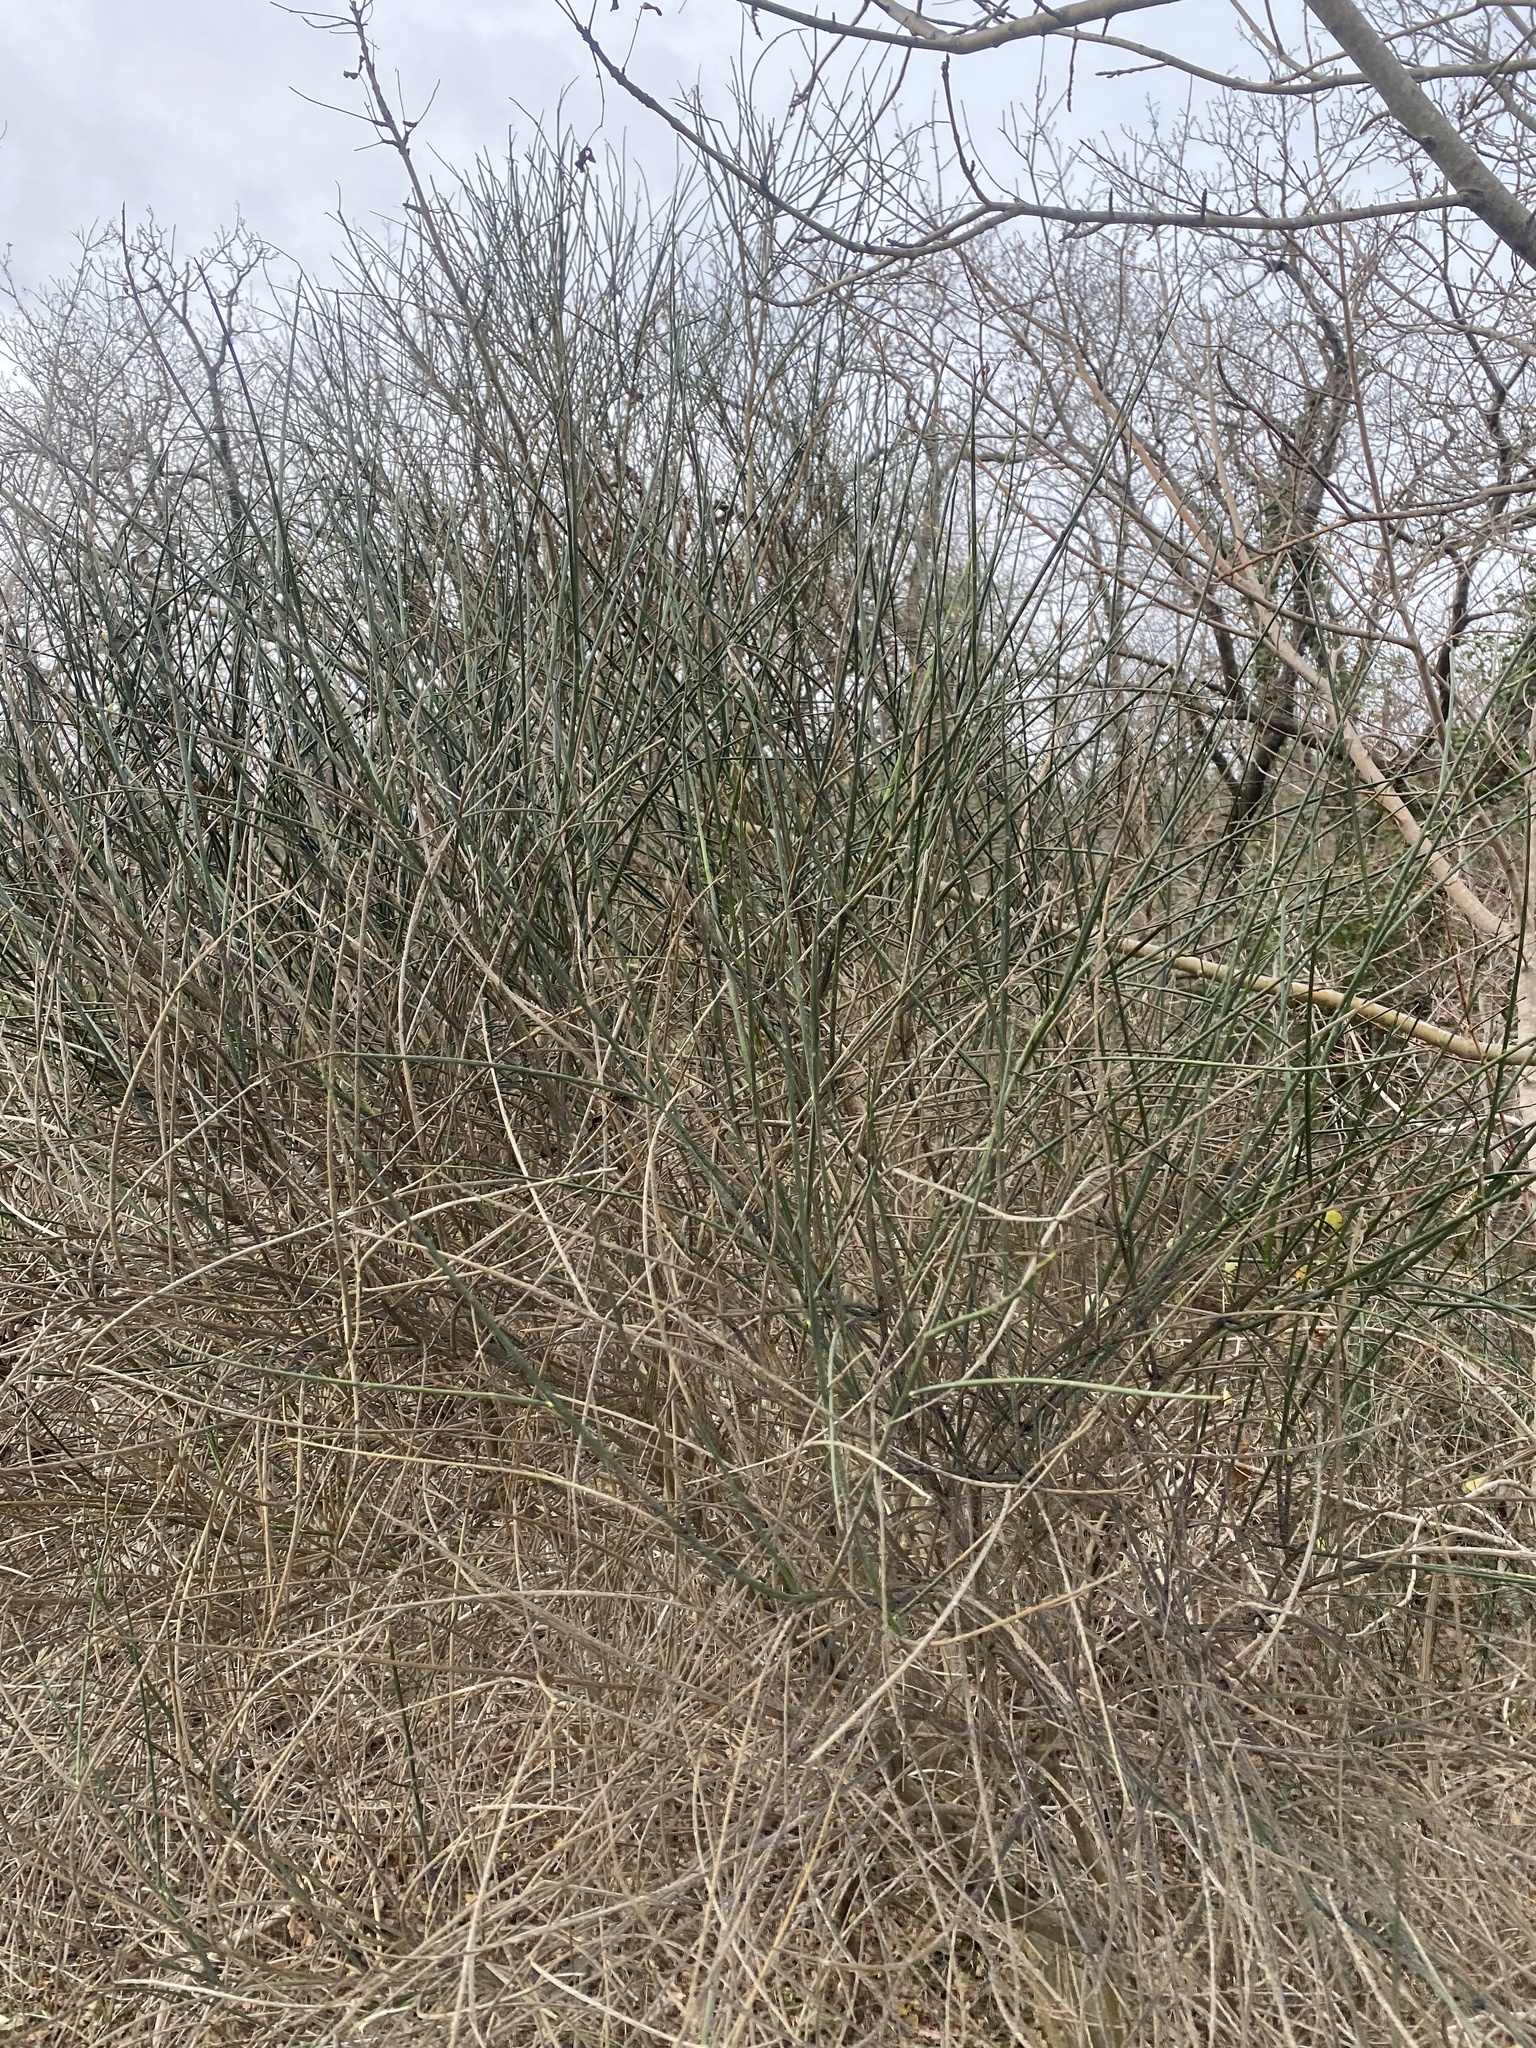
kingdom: Plantae
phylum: Tracheophyta
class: Magnoliopsida
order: Fabales
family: Fabaceae
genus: Spartium
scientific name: Spartium junceum
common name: Spanish broom
